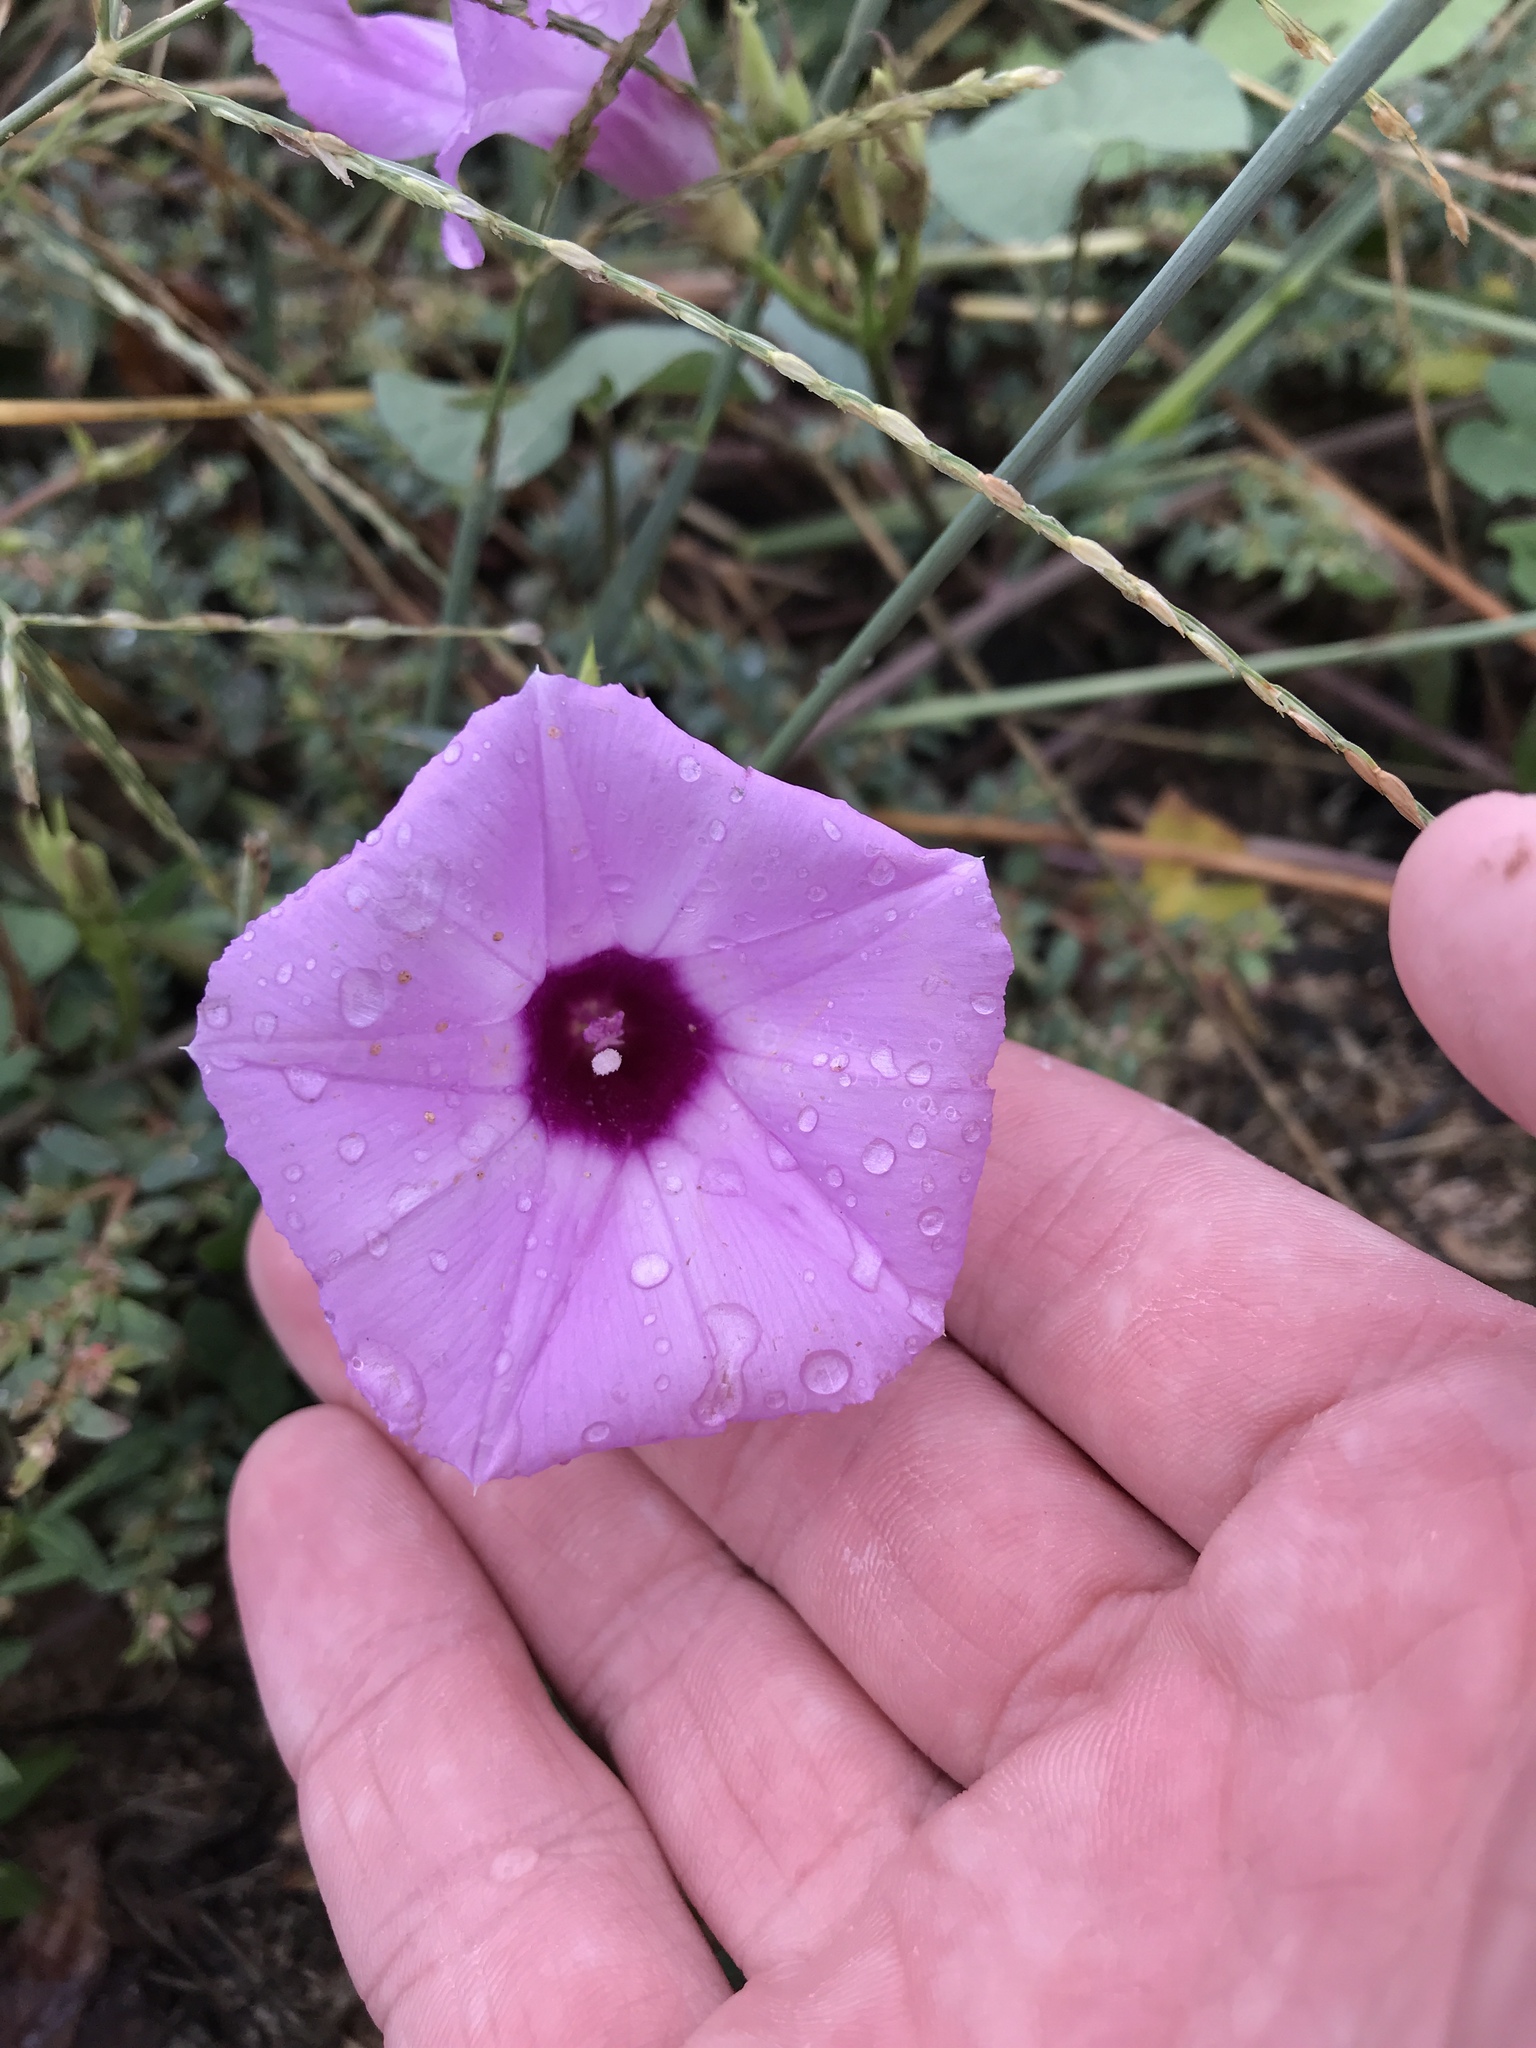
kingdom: Plantae
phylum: Tracheophyta
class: Magnoliopsida
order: Solanales
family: Convolvulaceae
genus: Ipomoea
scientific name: Ipomoea cordatotriloba
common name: Cotton morning glory
